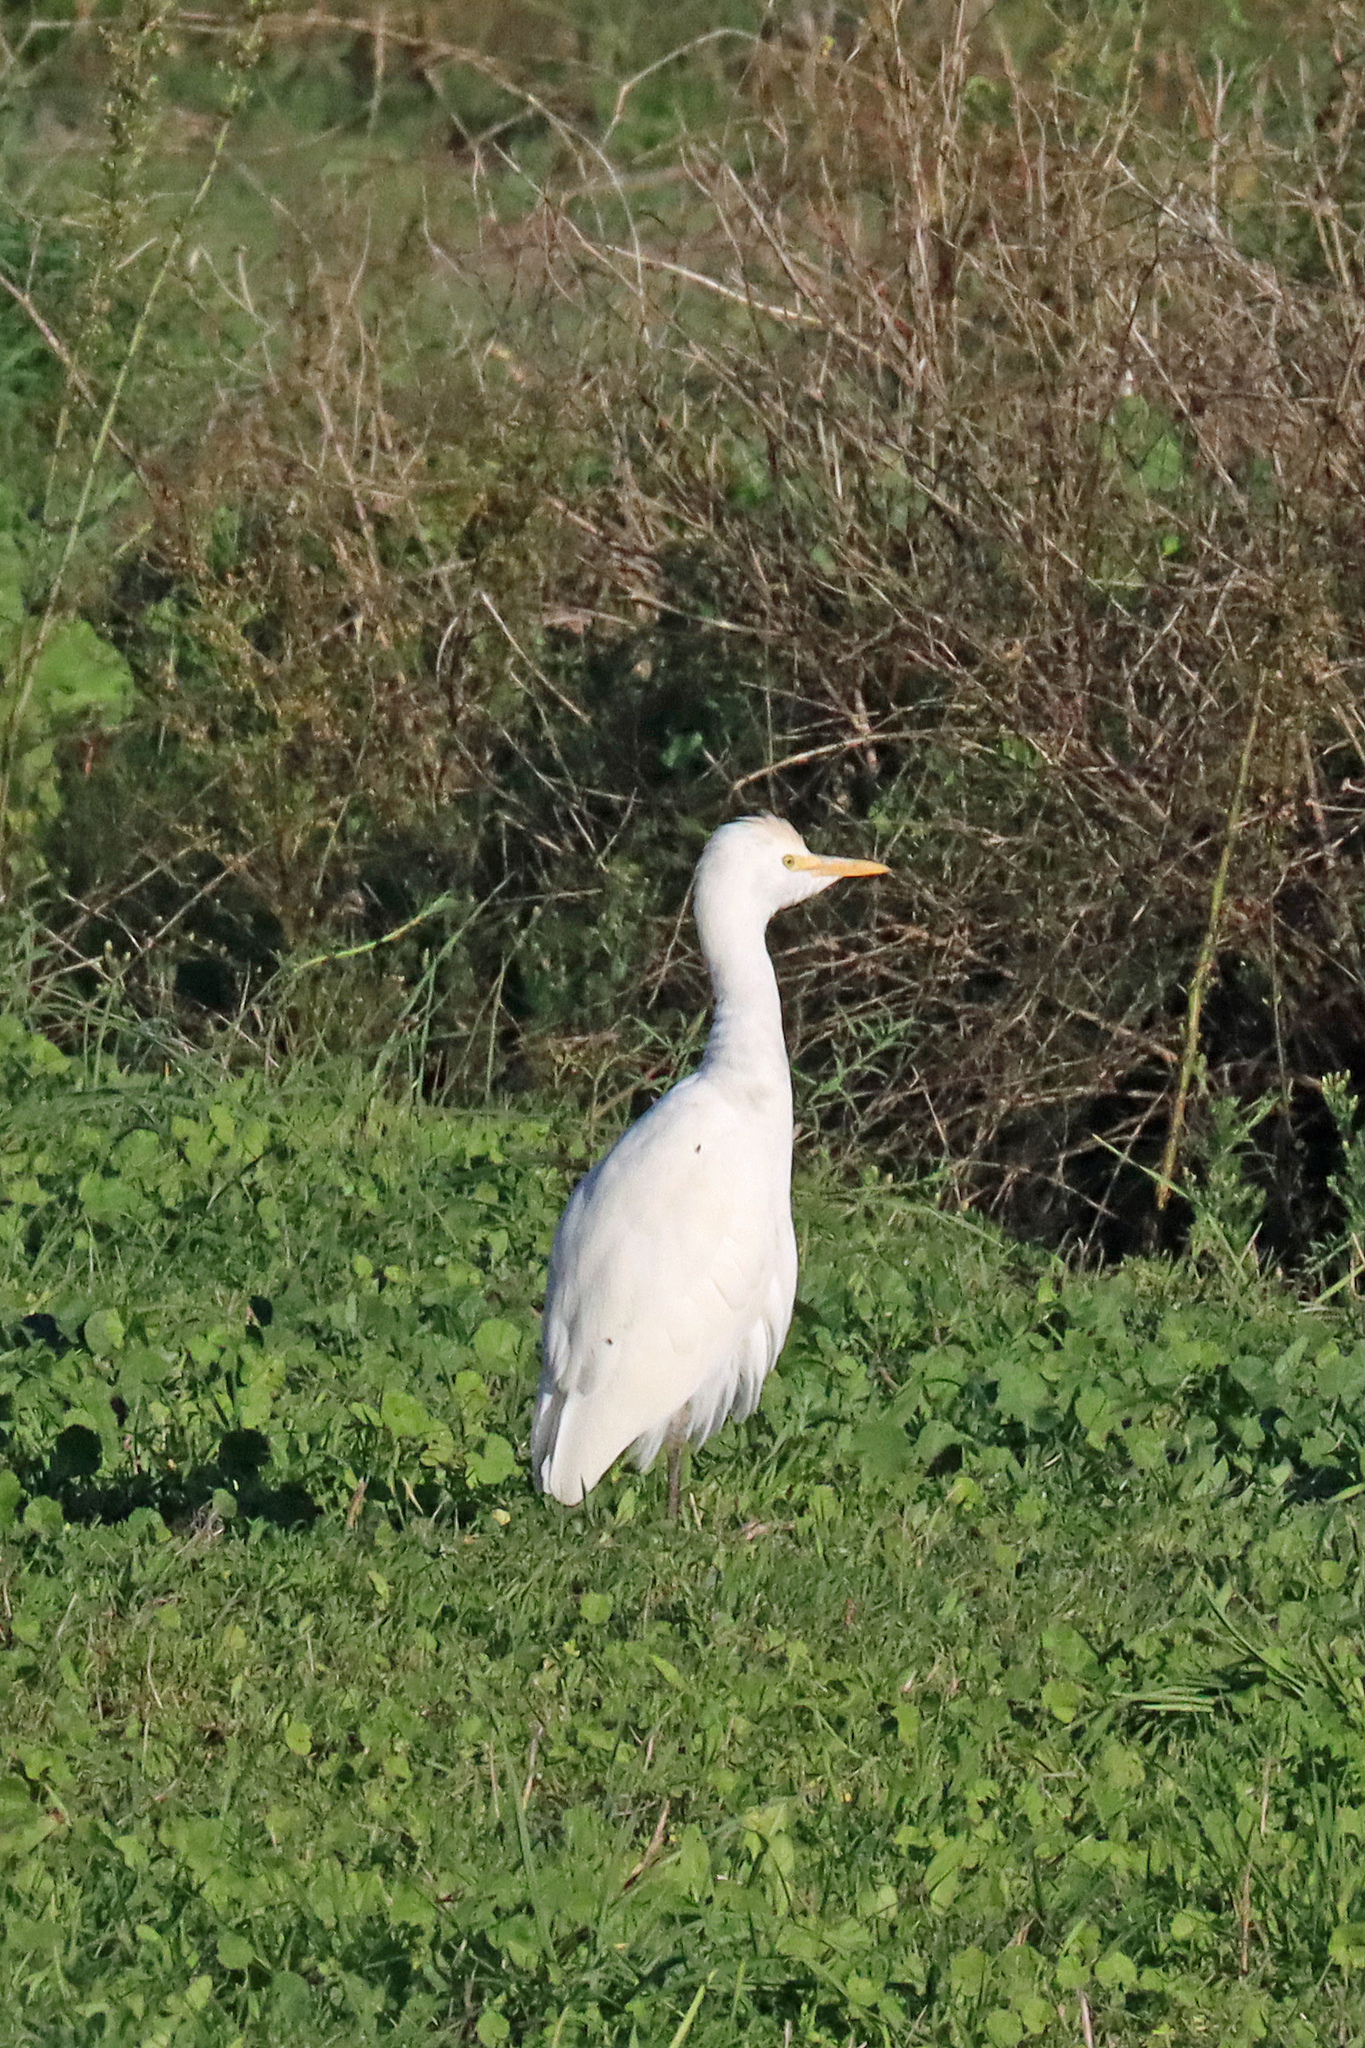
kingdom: Animalia
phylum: Chordata
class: Aves
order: Pelecaniformes
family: Ardeidae
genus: Bubulcus
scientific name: Bubulcus ibis
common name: Cattle egret
